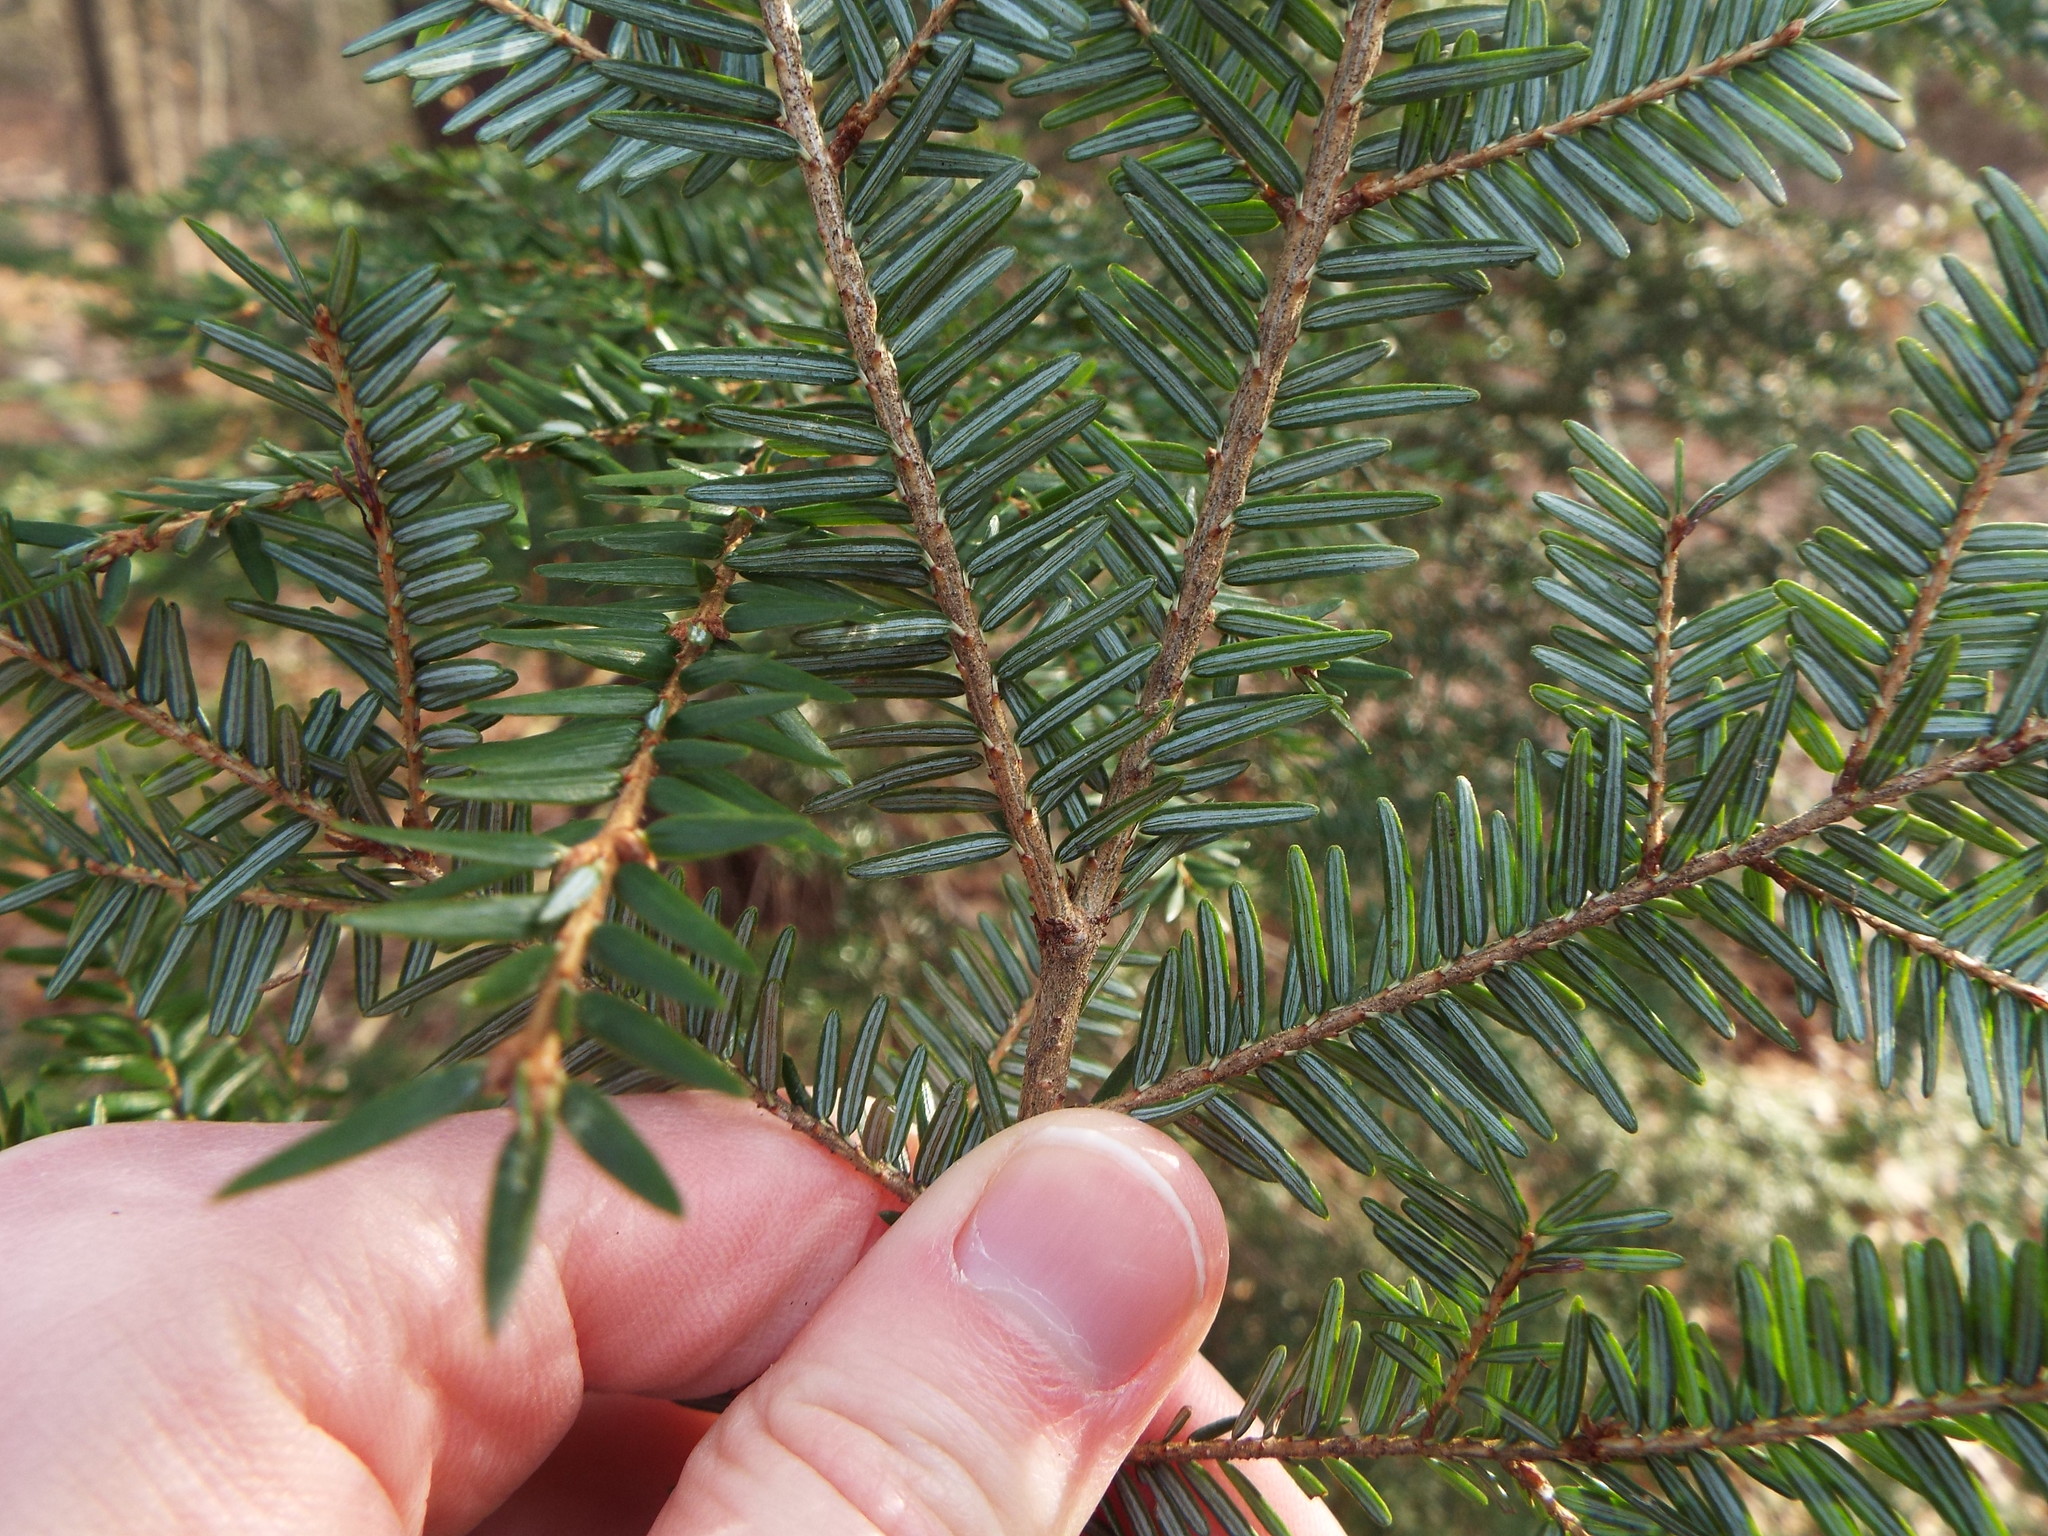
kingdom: Plantae
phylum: Tracheophyta
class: Pinopsida
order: Pinales
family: Pinaceae
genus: Tsuga
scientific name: Tsuga canadensis
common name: Eastern hemlock
